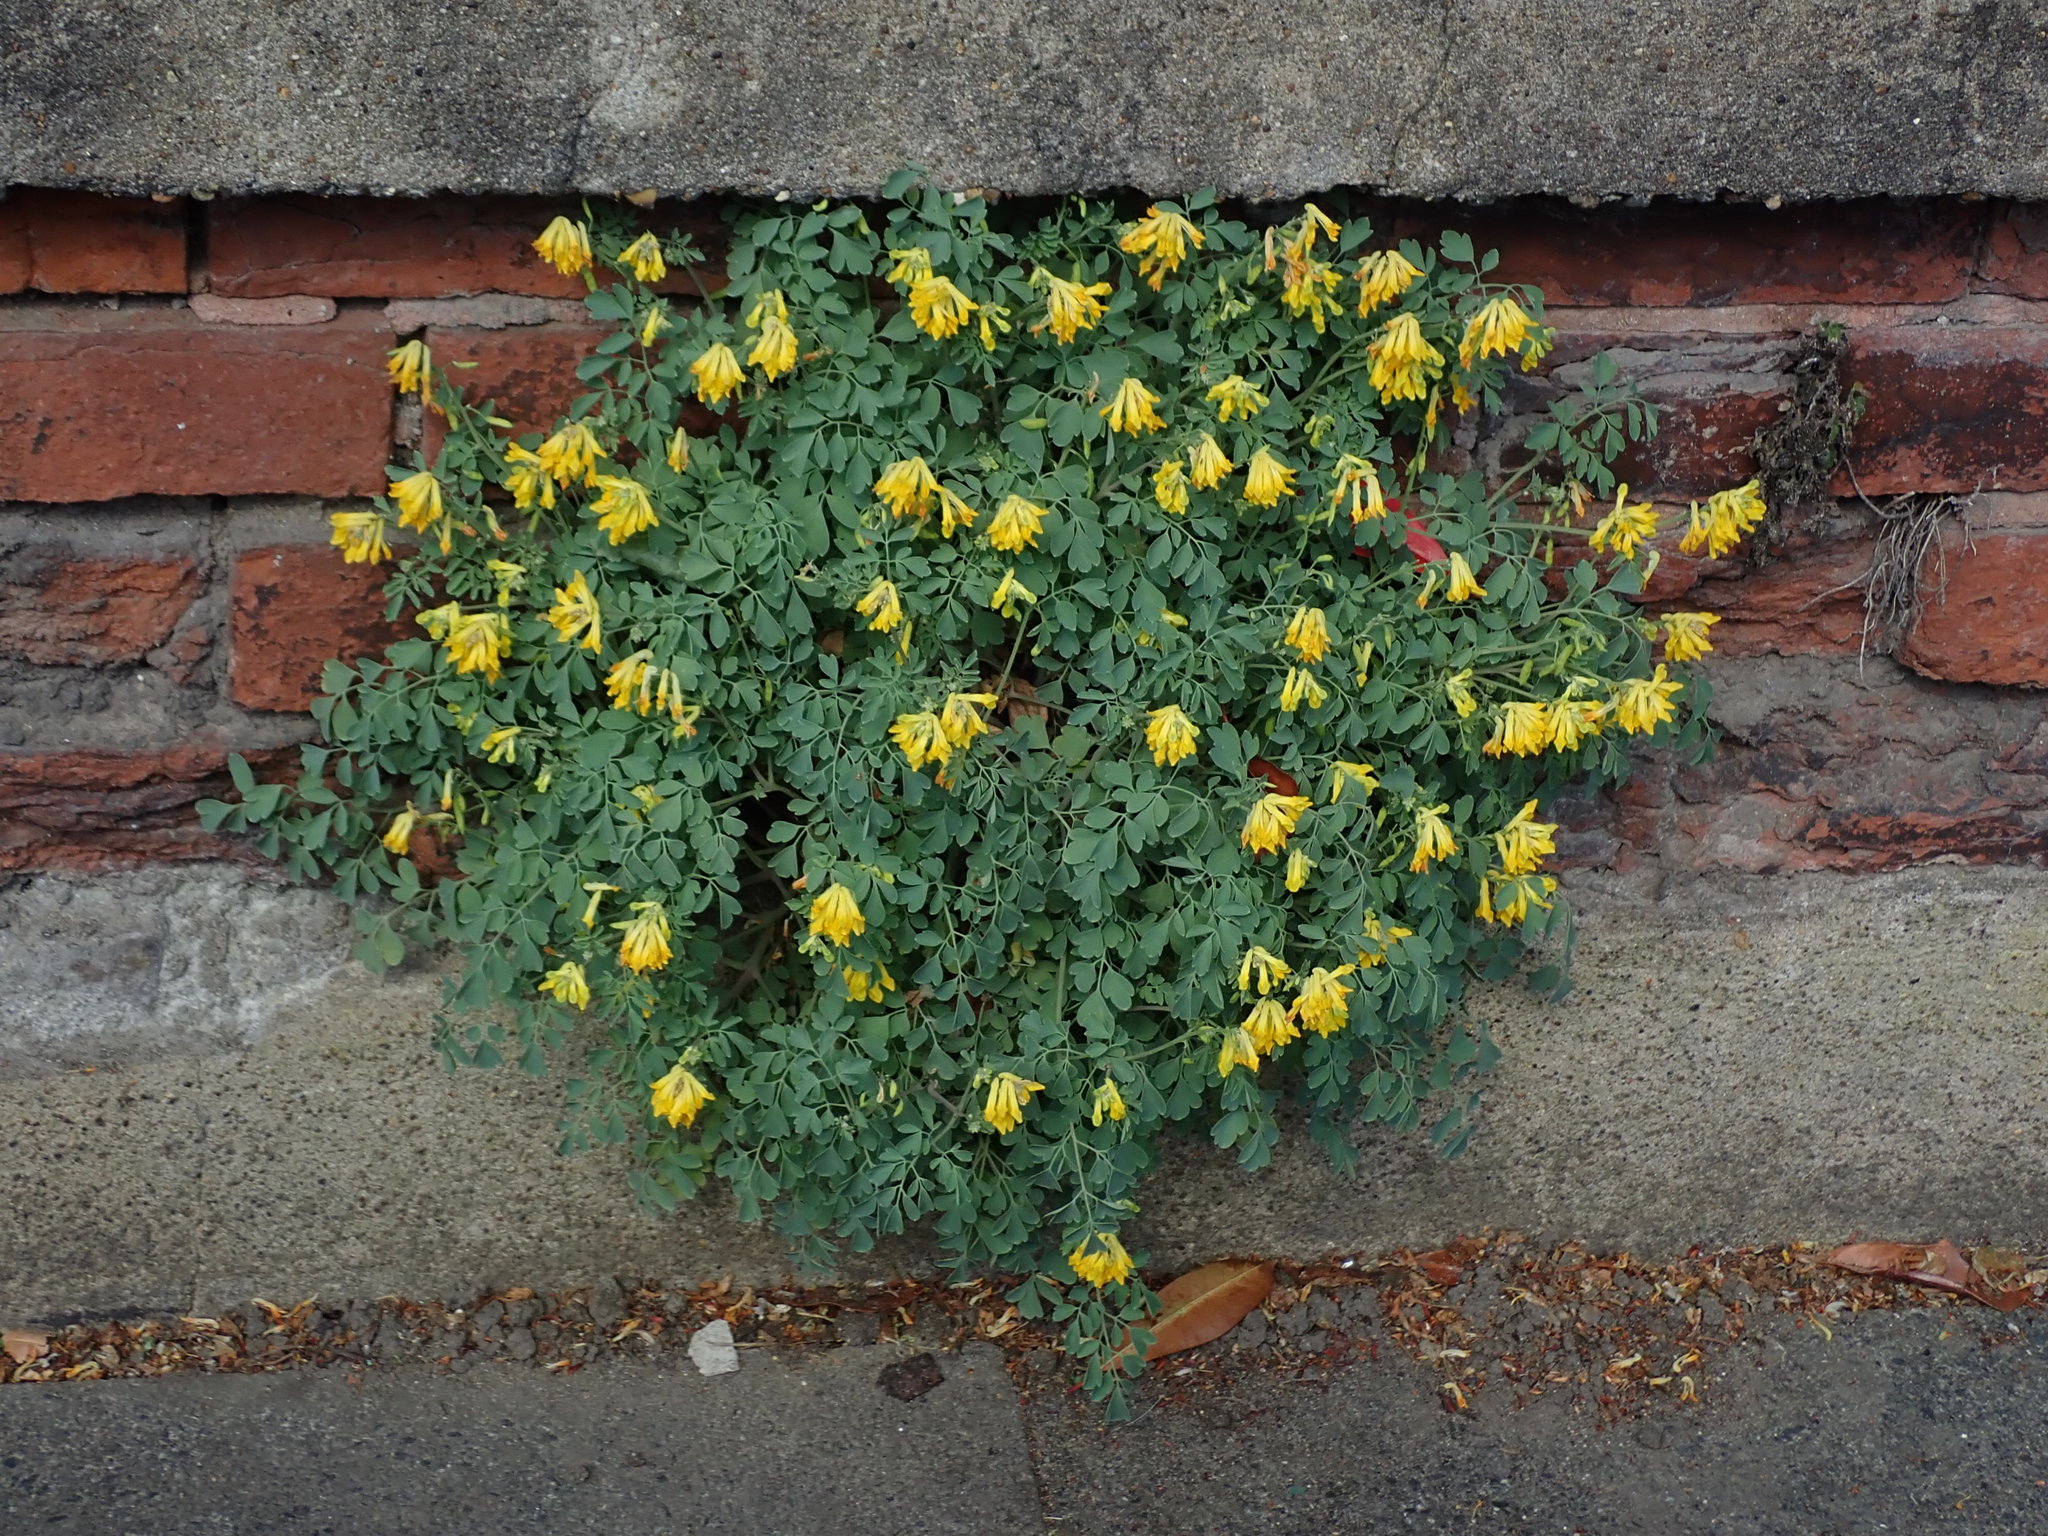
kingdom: Plantae
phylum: Tracheophyta
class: Magnoliopsida
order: Ranunculales
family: Papaveraceae
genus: Pseudofumaria
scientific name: Pseudofumaria lutea
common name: Yellow corydalis
